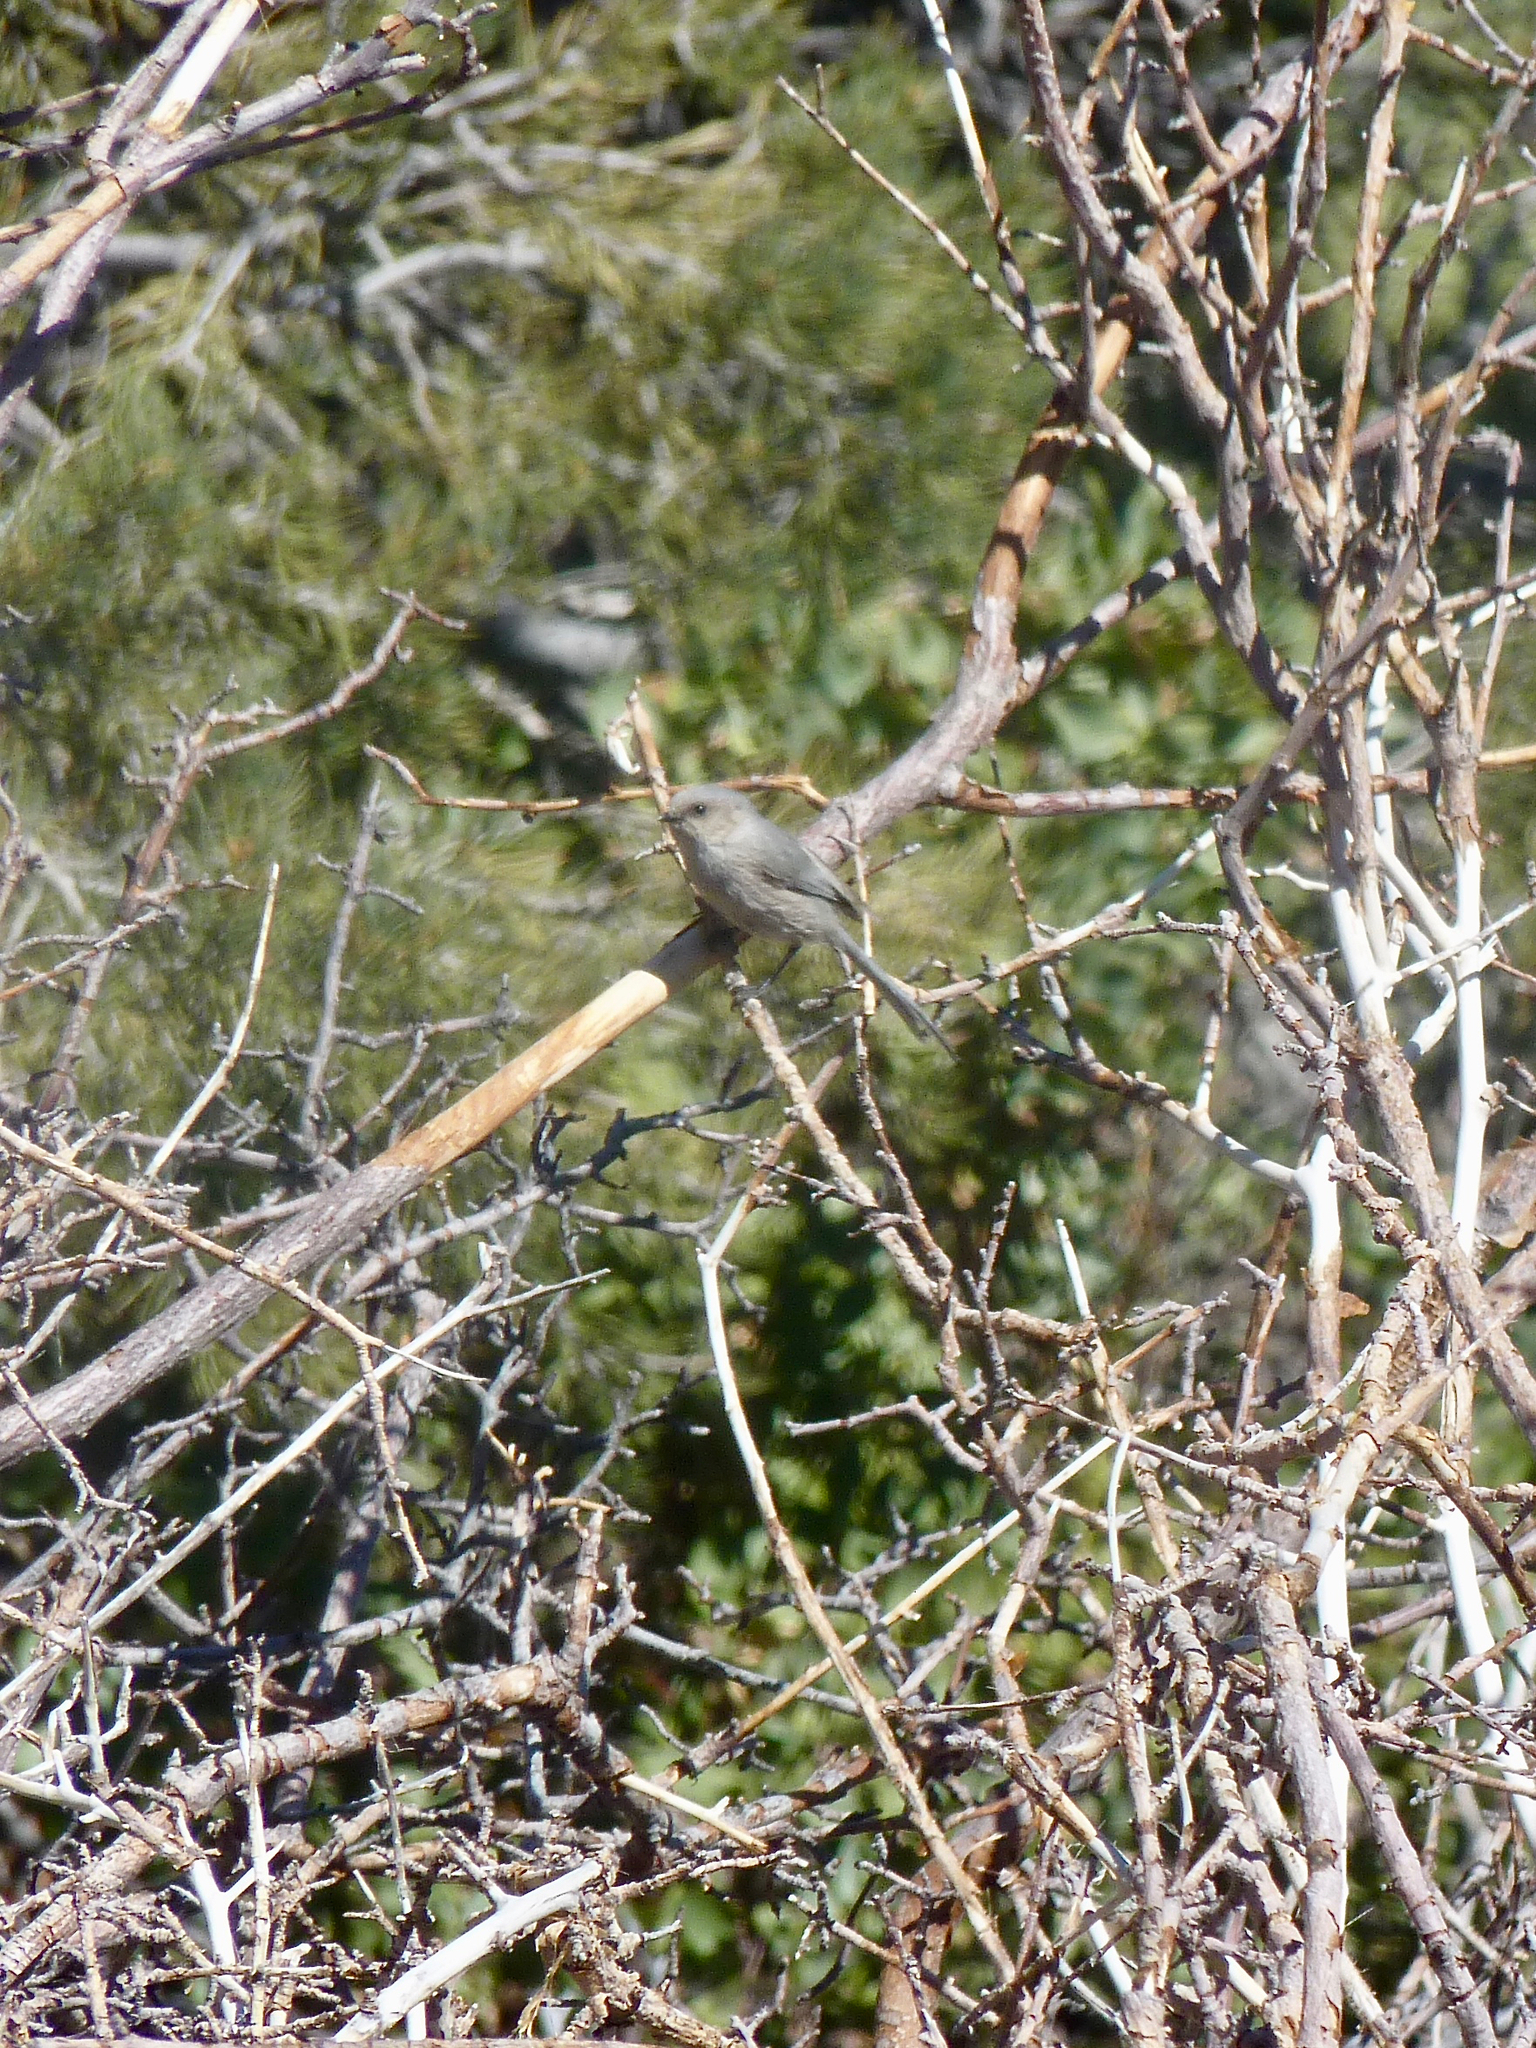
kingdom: Animalia
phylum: Chordata
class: Aves
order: Passeriformes
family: Aegithalidae
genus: Psaltriparus
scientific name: Psaltriparus minimus
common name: American bushtit
